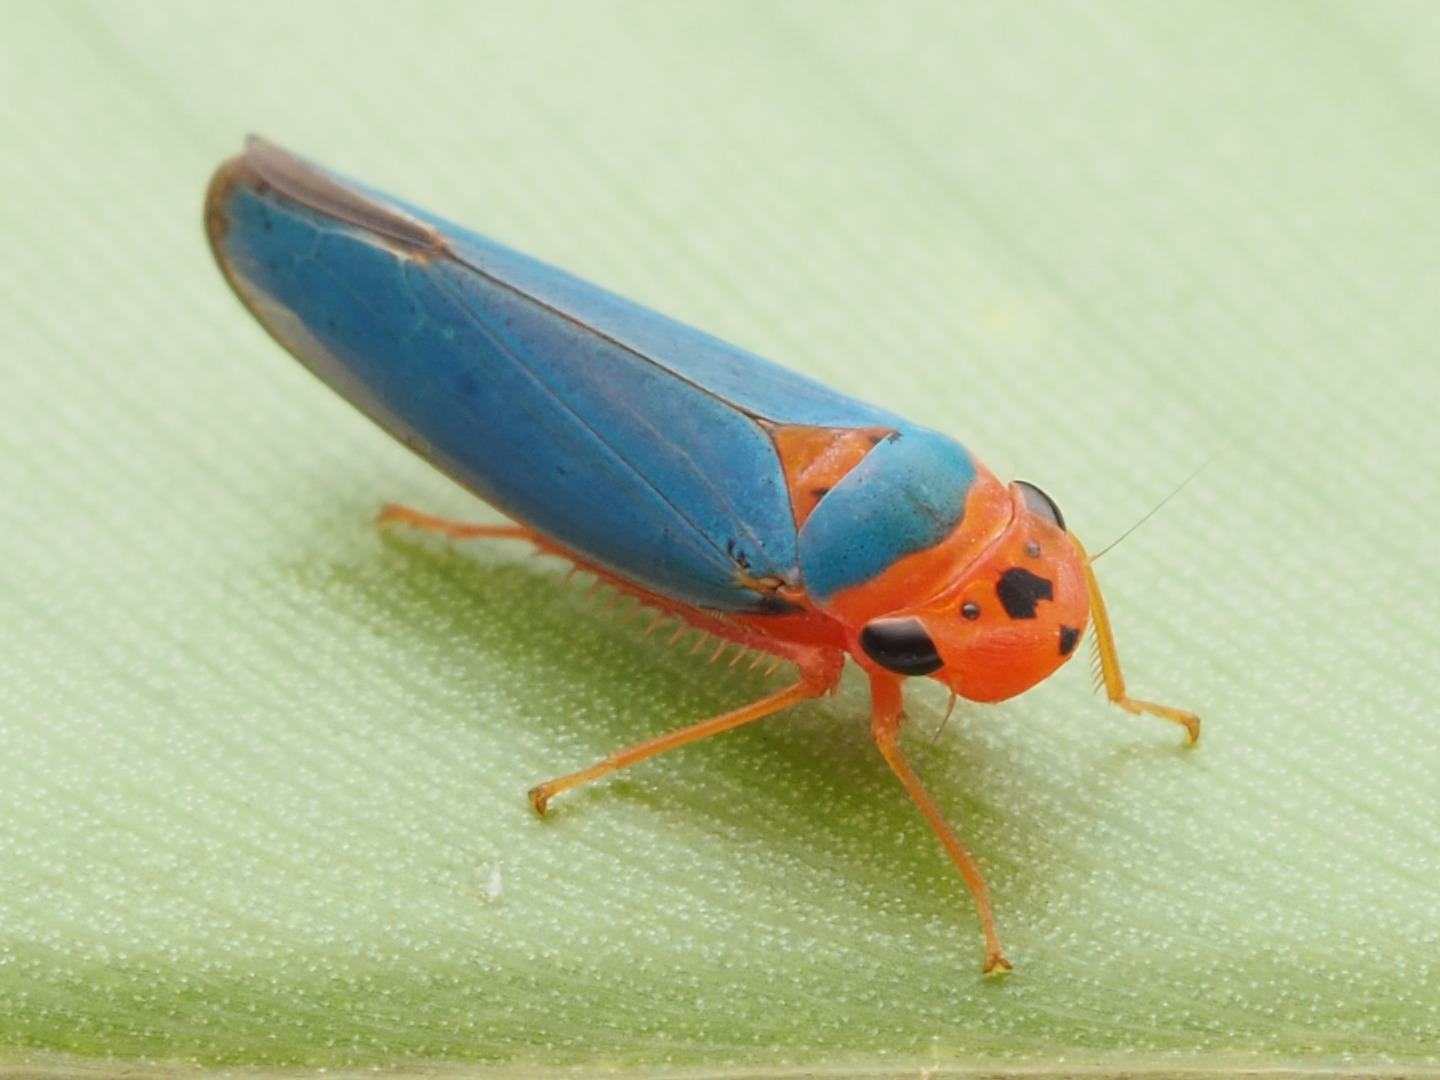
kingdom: Animalia
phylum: Arthropoda
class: Insecta
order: Hemiptera
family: Cicadellidae
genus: Macunolla
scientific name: Macunolla ventralis
